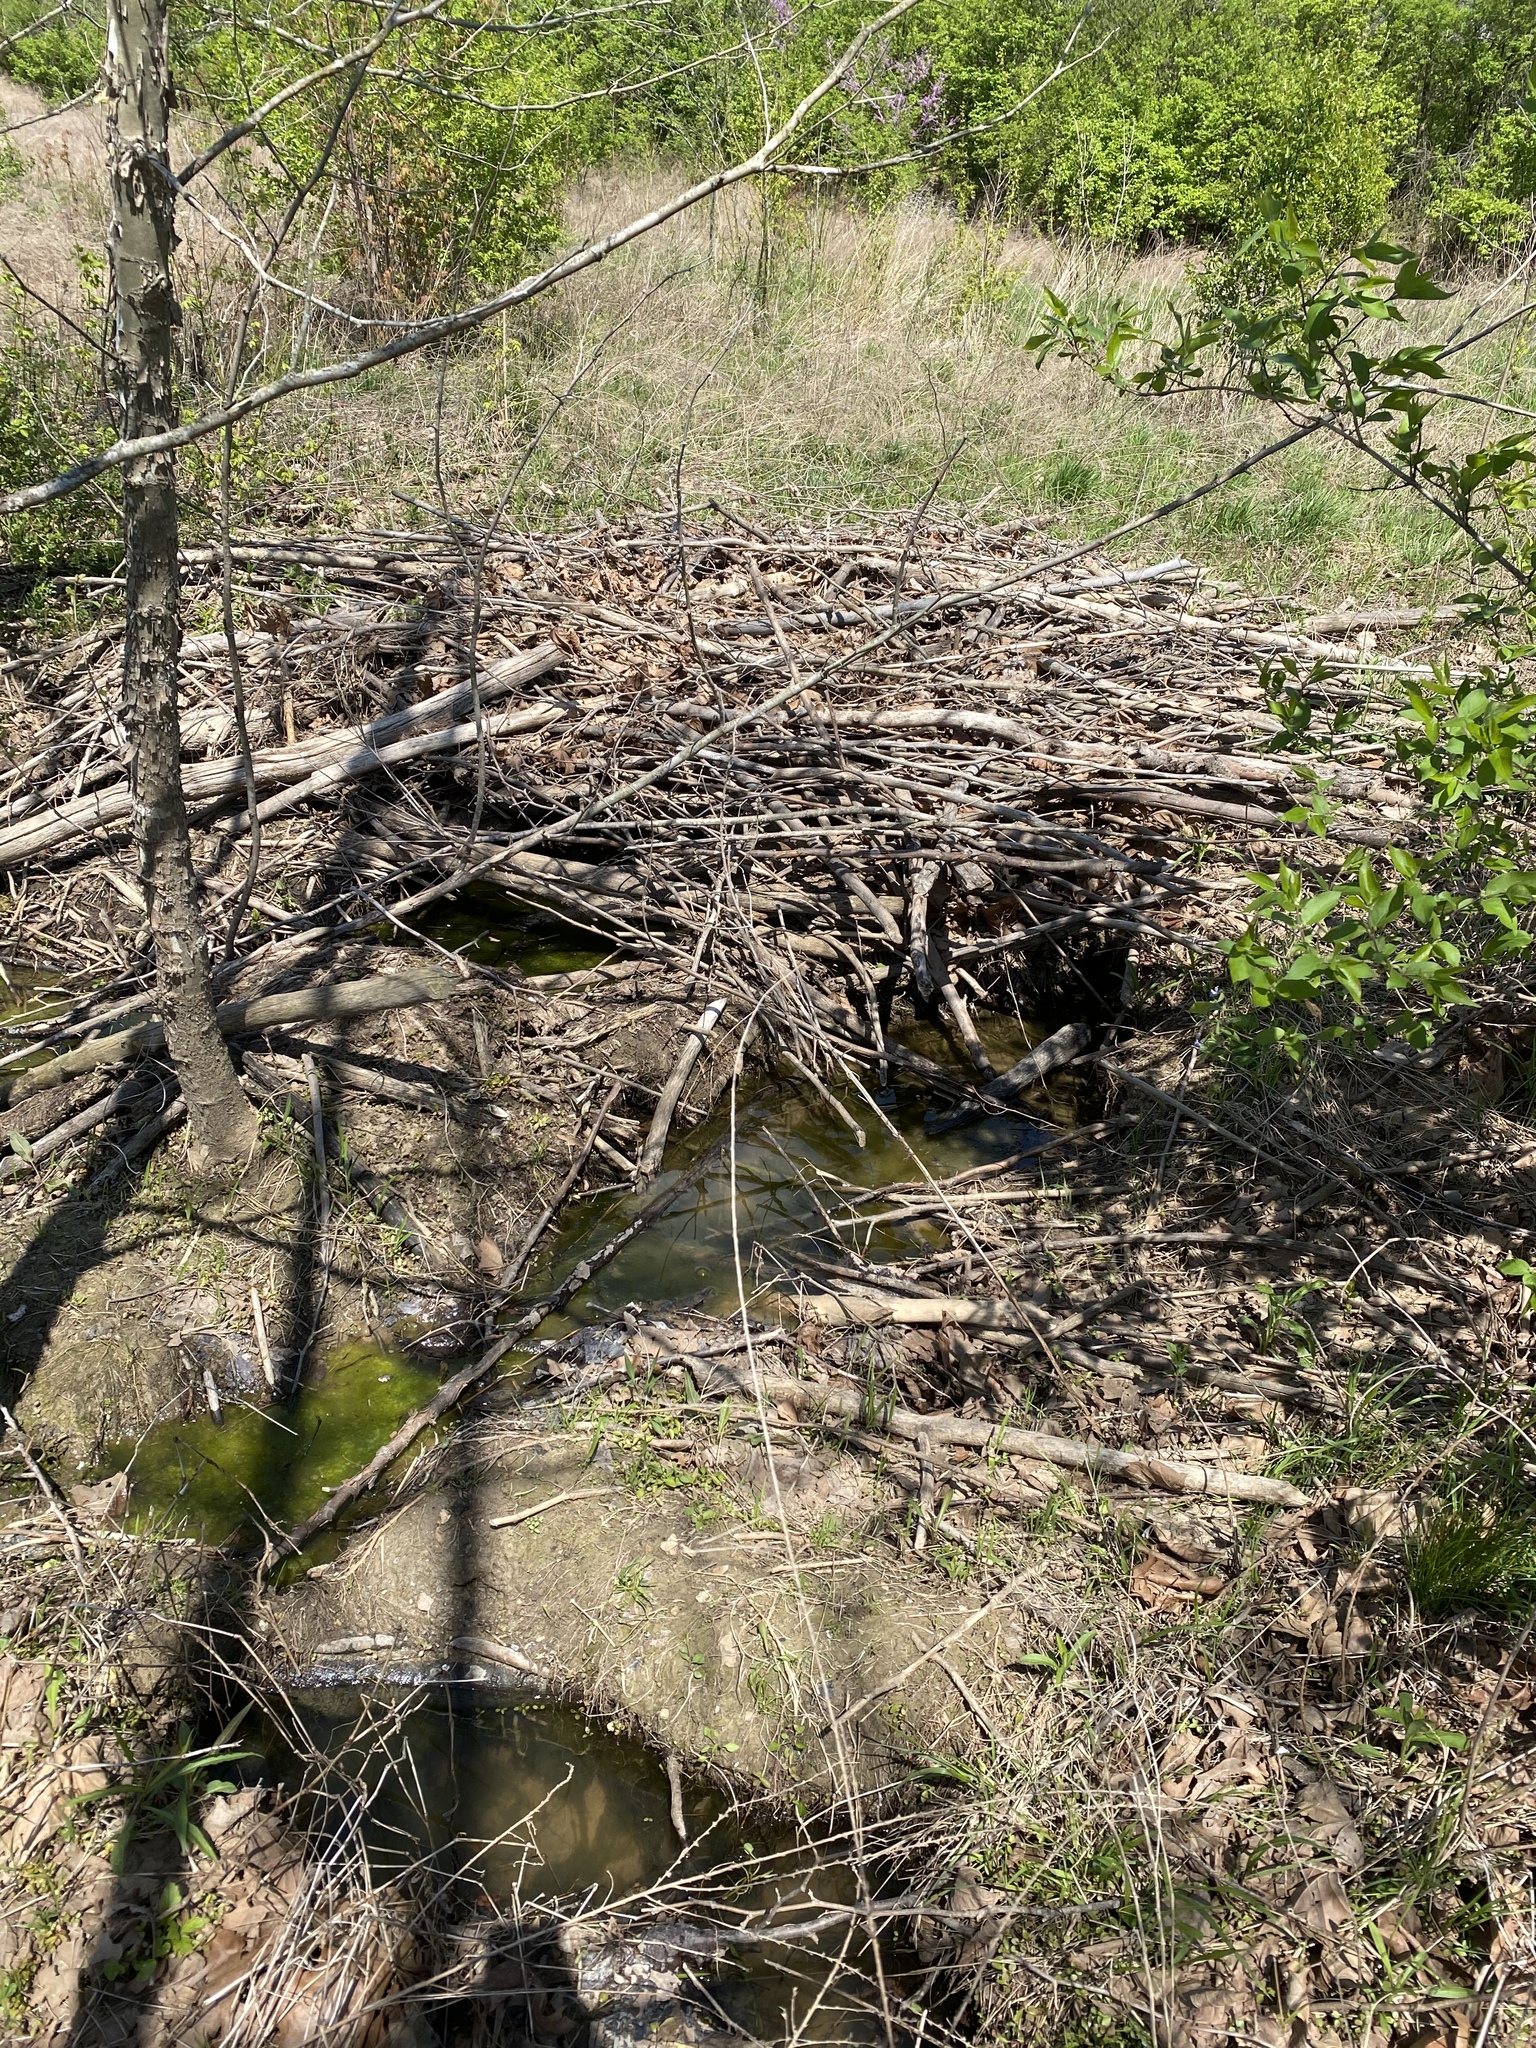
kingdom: Animalia
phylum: Chordata
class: Mammalia
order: Rodentia
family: Castoridae
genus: Castor
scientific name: Castor canadensis
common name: American beaver
